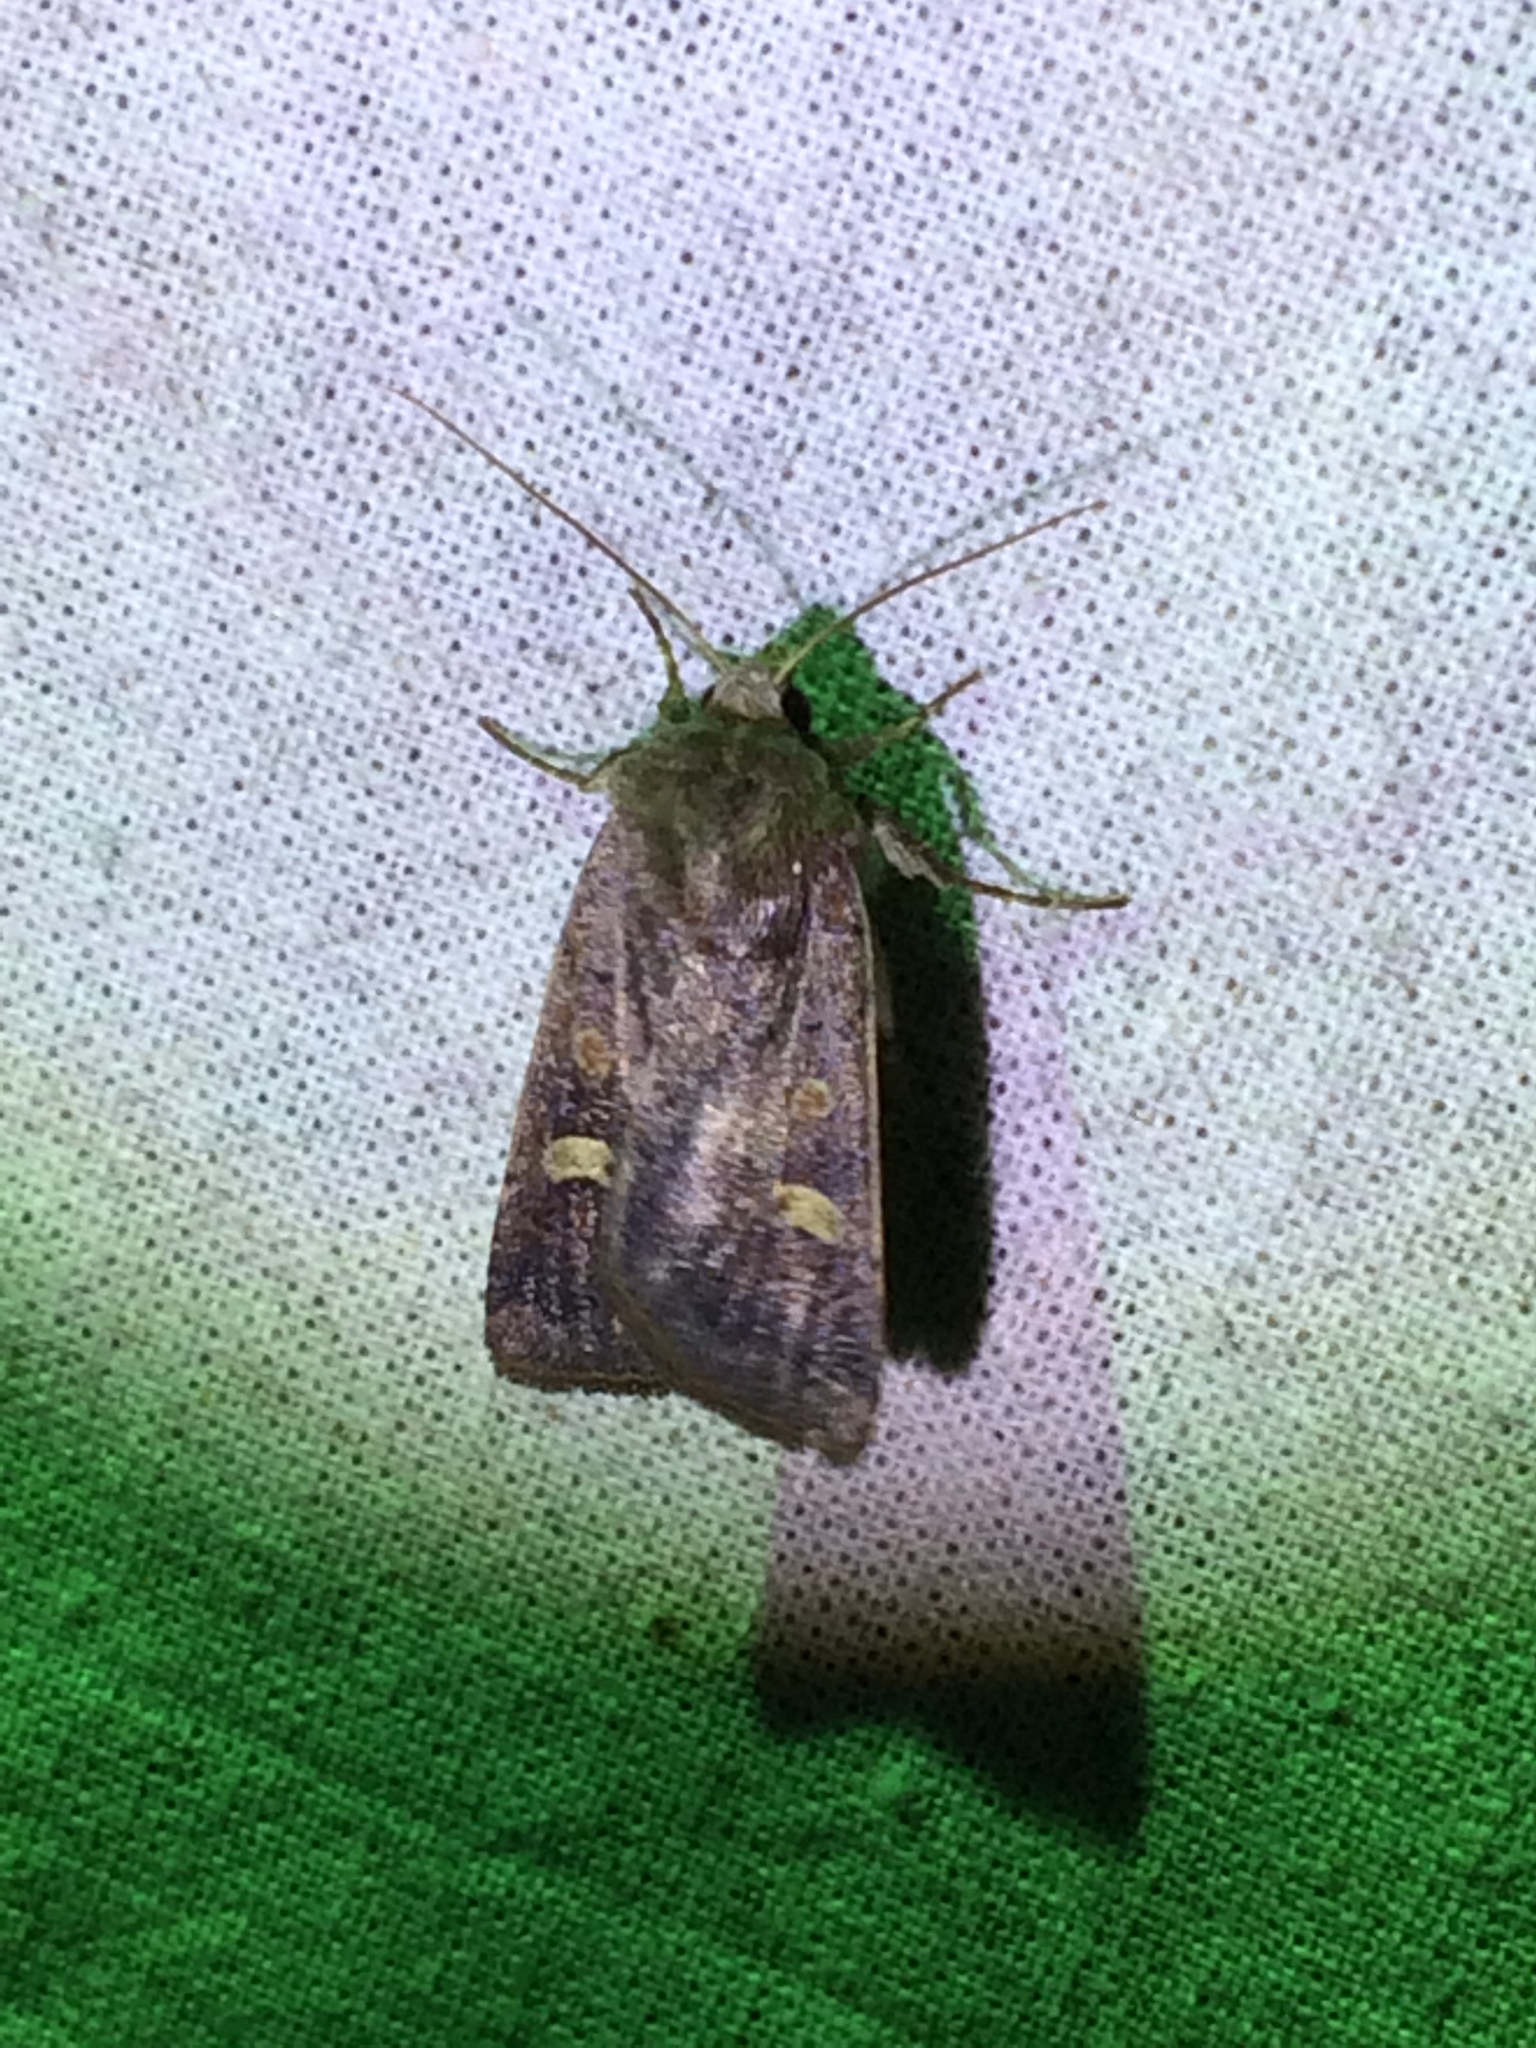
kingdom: Animalia
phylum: Arthropoda
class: Insecta
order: Lepidoptera
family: Noctuidae
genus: Xestia
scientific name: Xestia xanthographa
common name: Square-spot rustic
